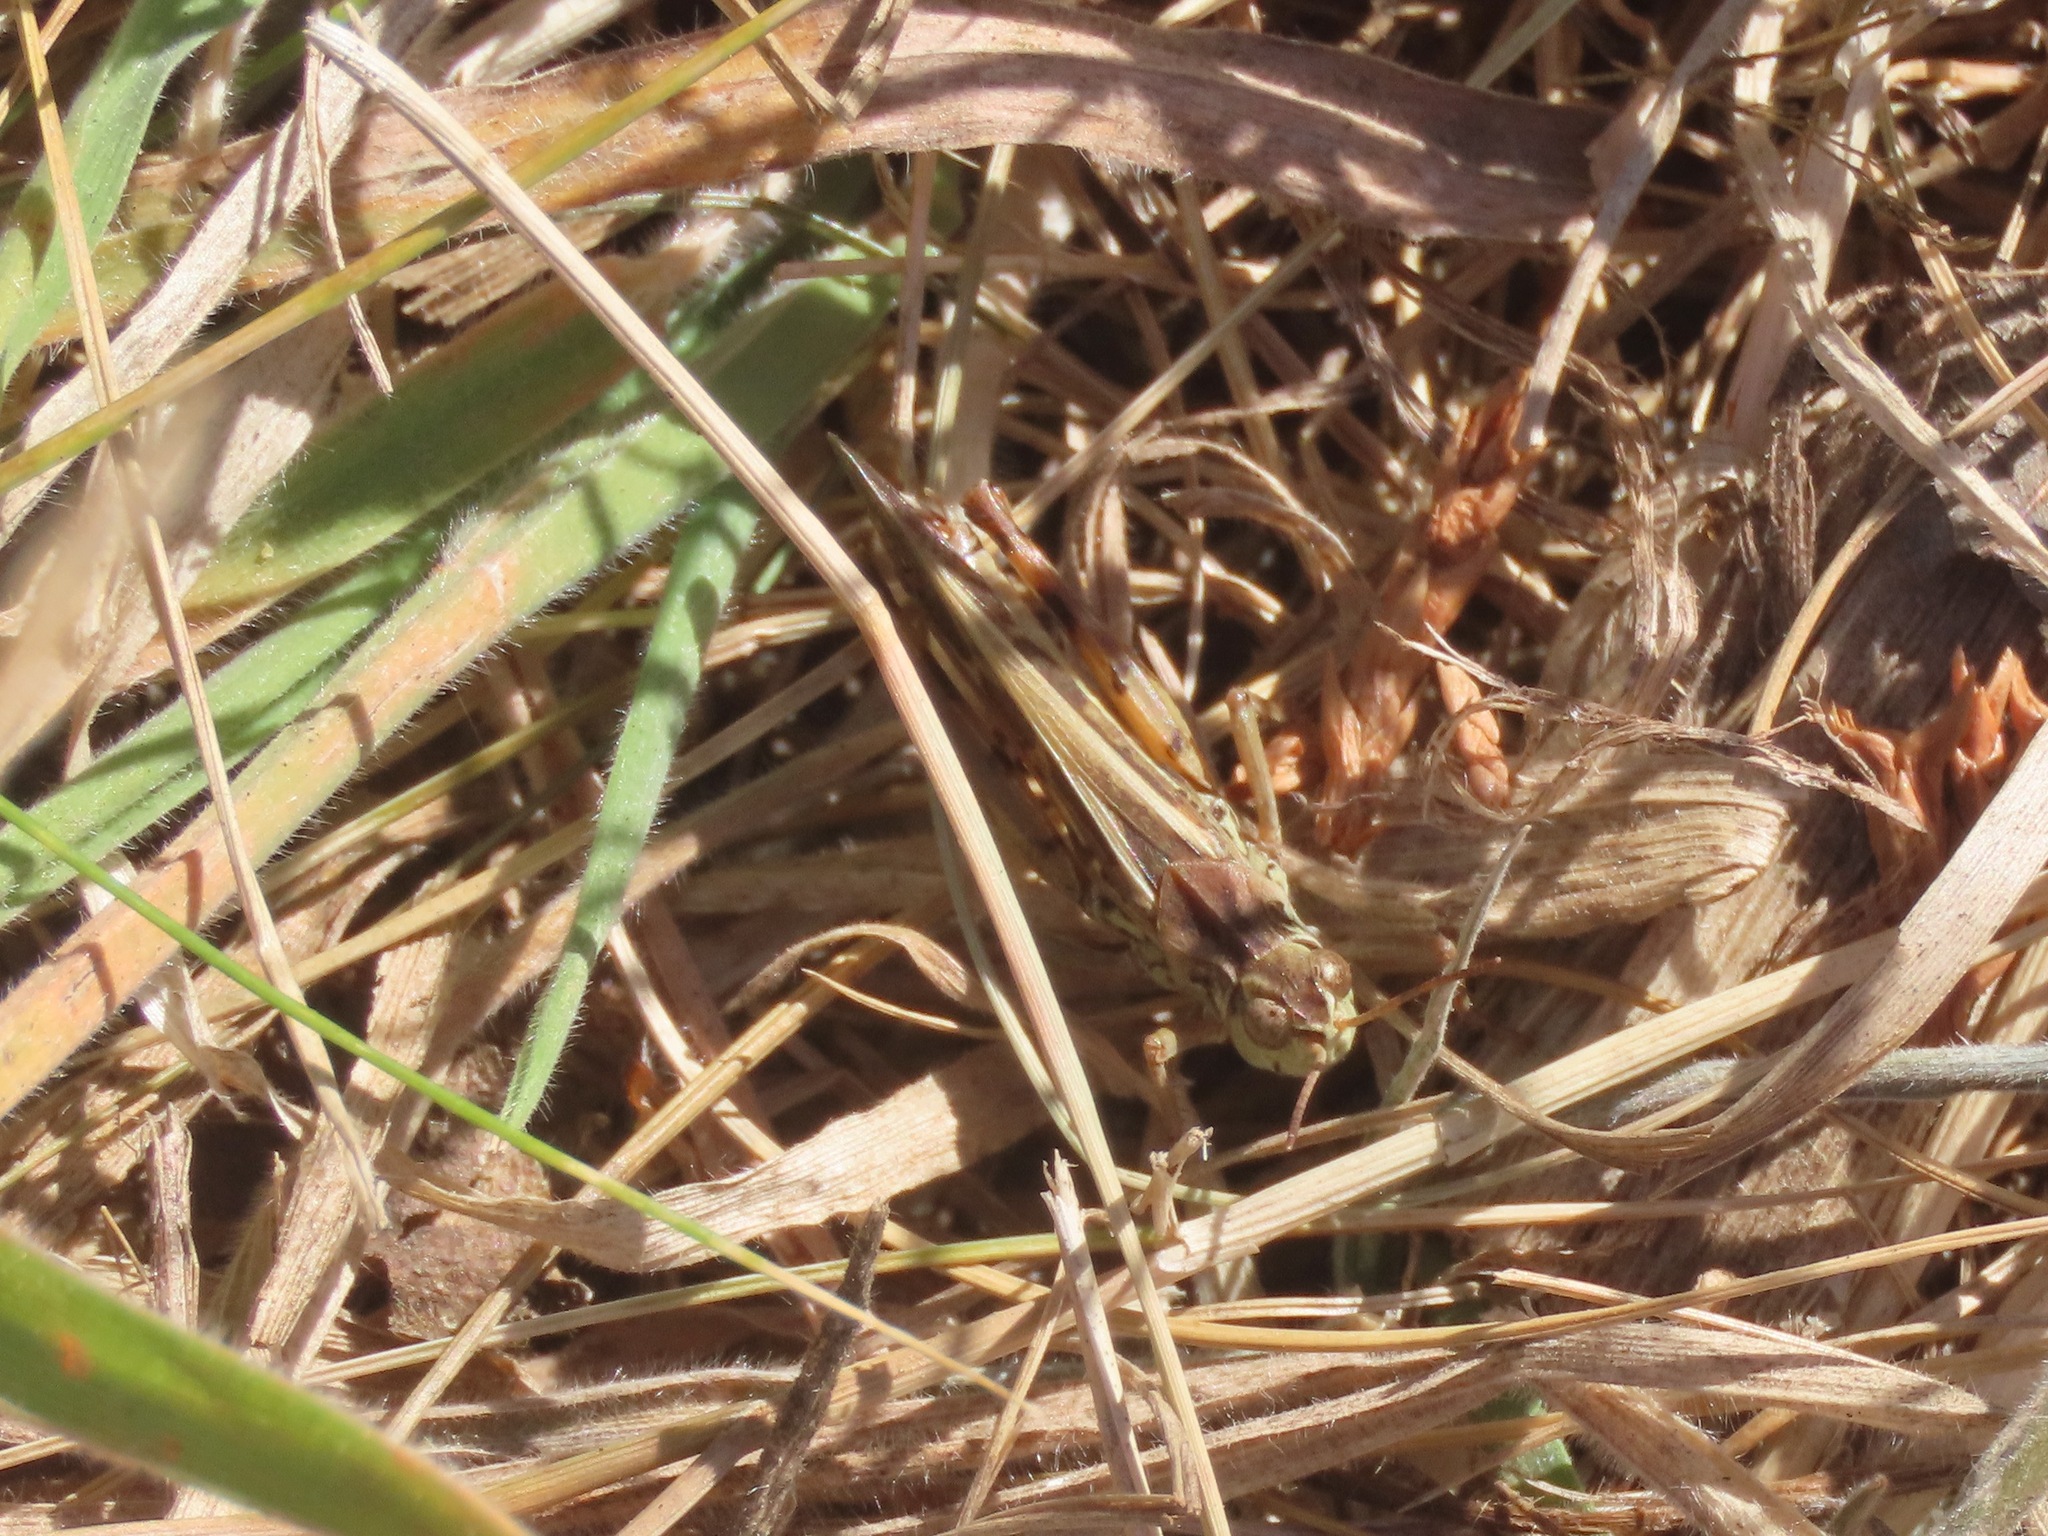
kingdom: Animalia
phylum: Arthropoda
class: Insecta
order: Orthoptera
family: Acrididae
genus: Camnula
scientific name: Camnula pellucida
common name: Clear-winged grasshopper
